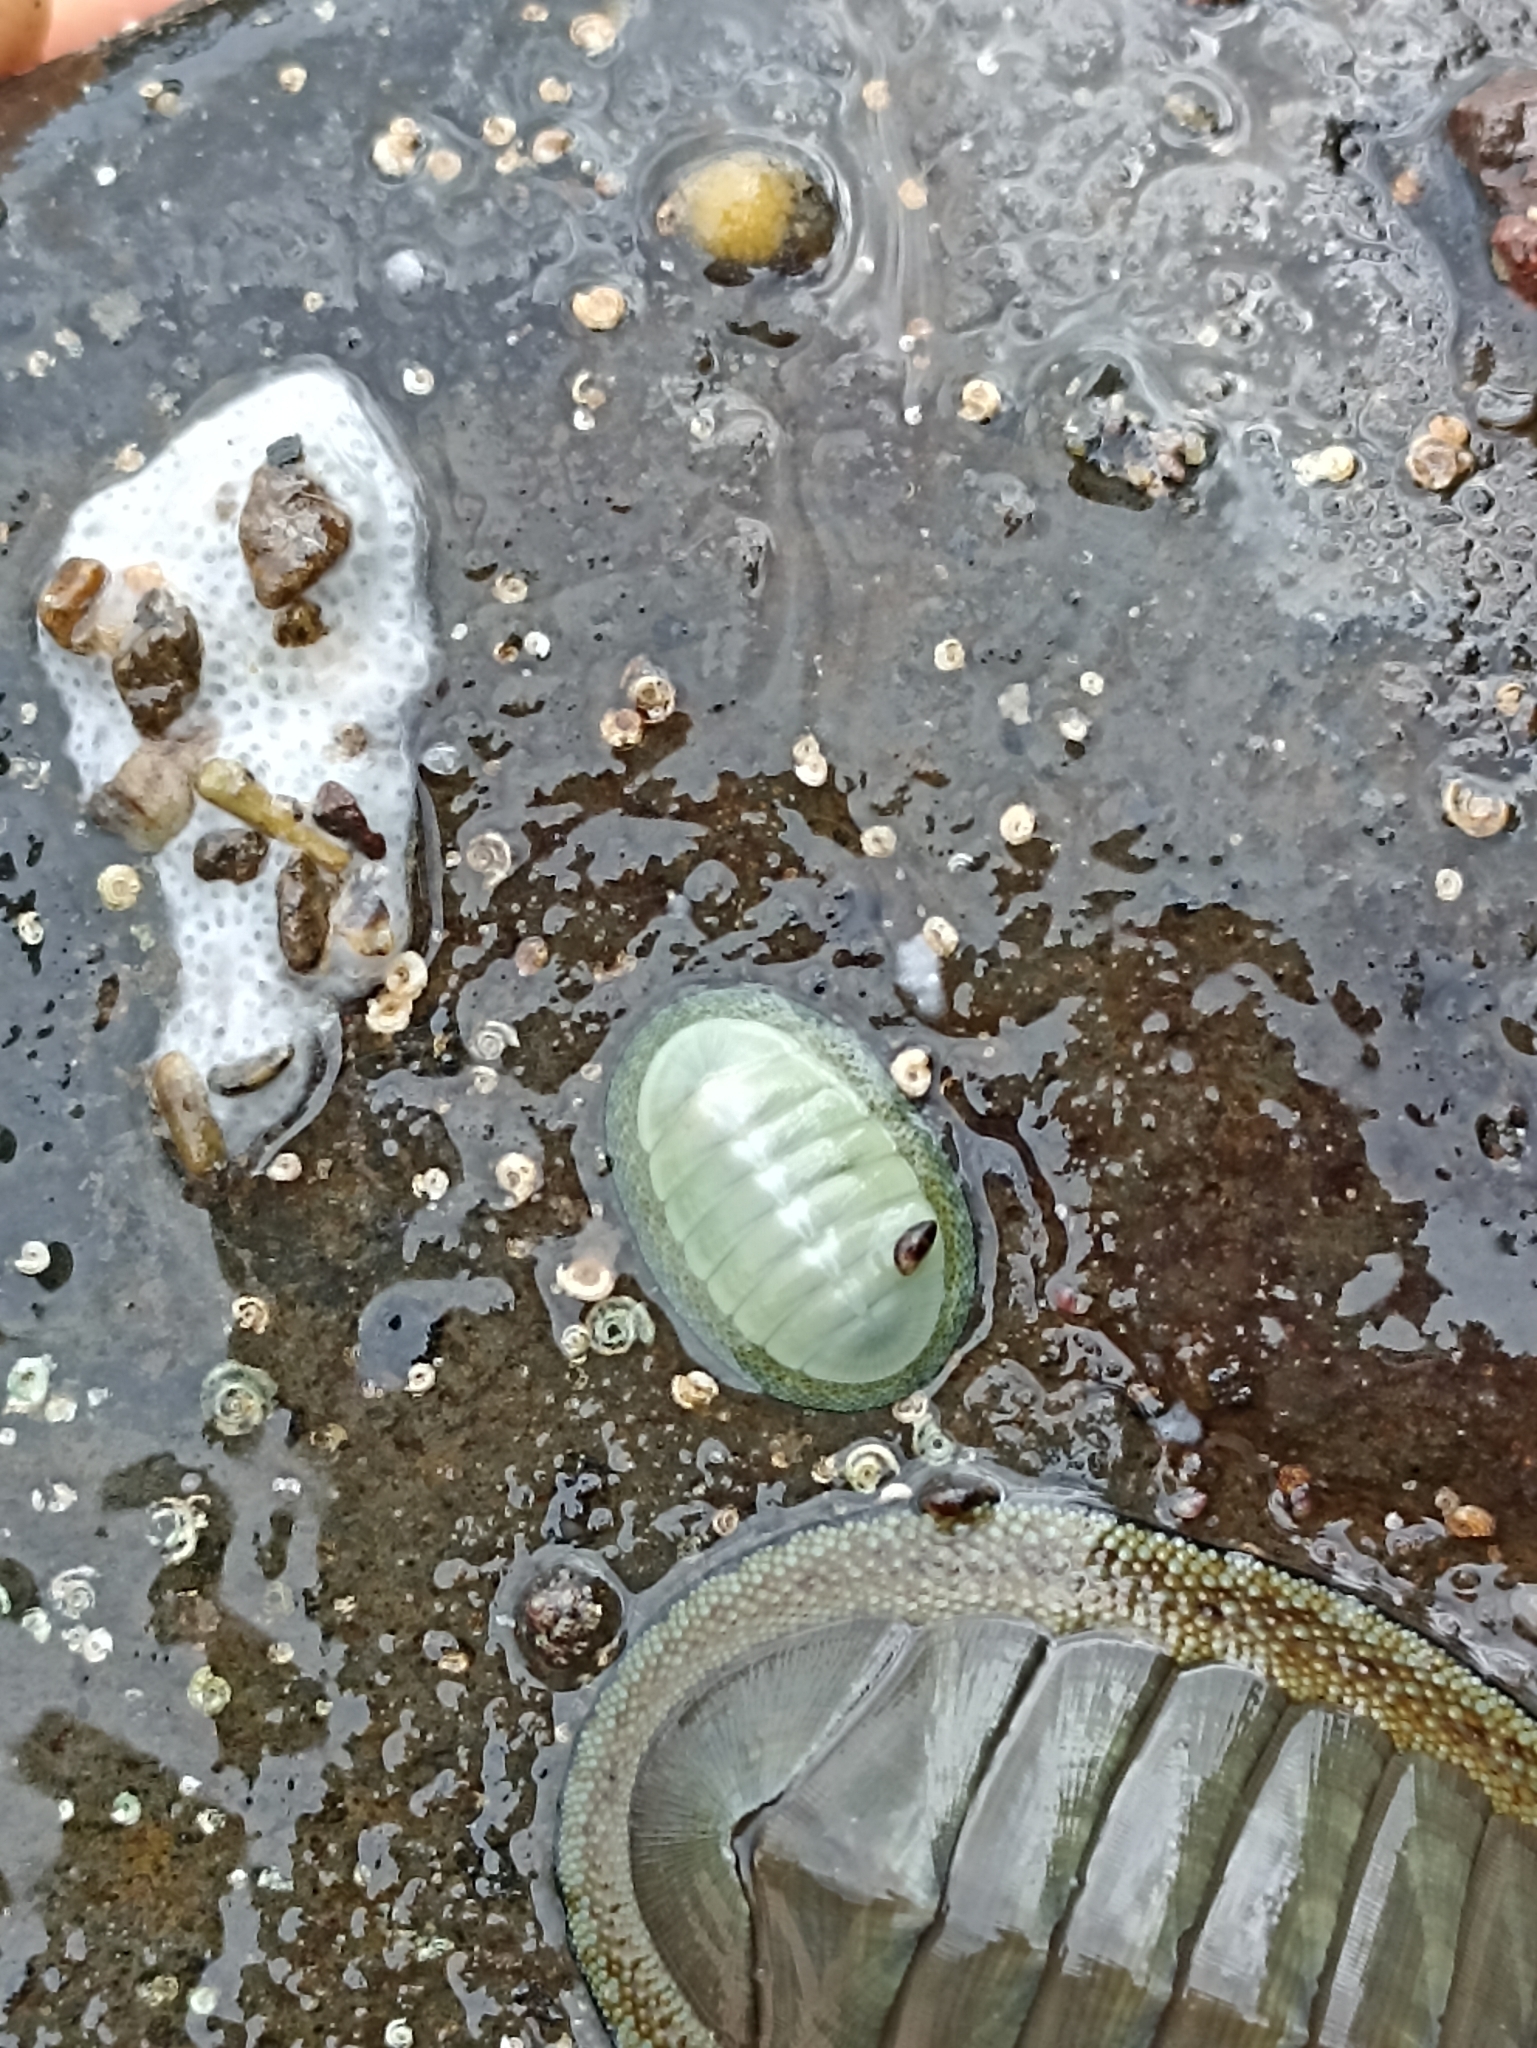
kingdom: Animalia
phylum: Mollusca
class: Polyplacophora
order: Chitonida
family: Chitonidae
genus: Chiton
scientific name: Chiton glaucus
